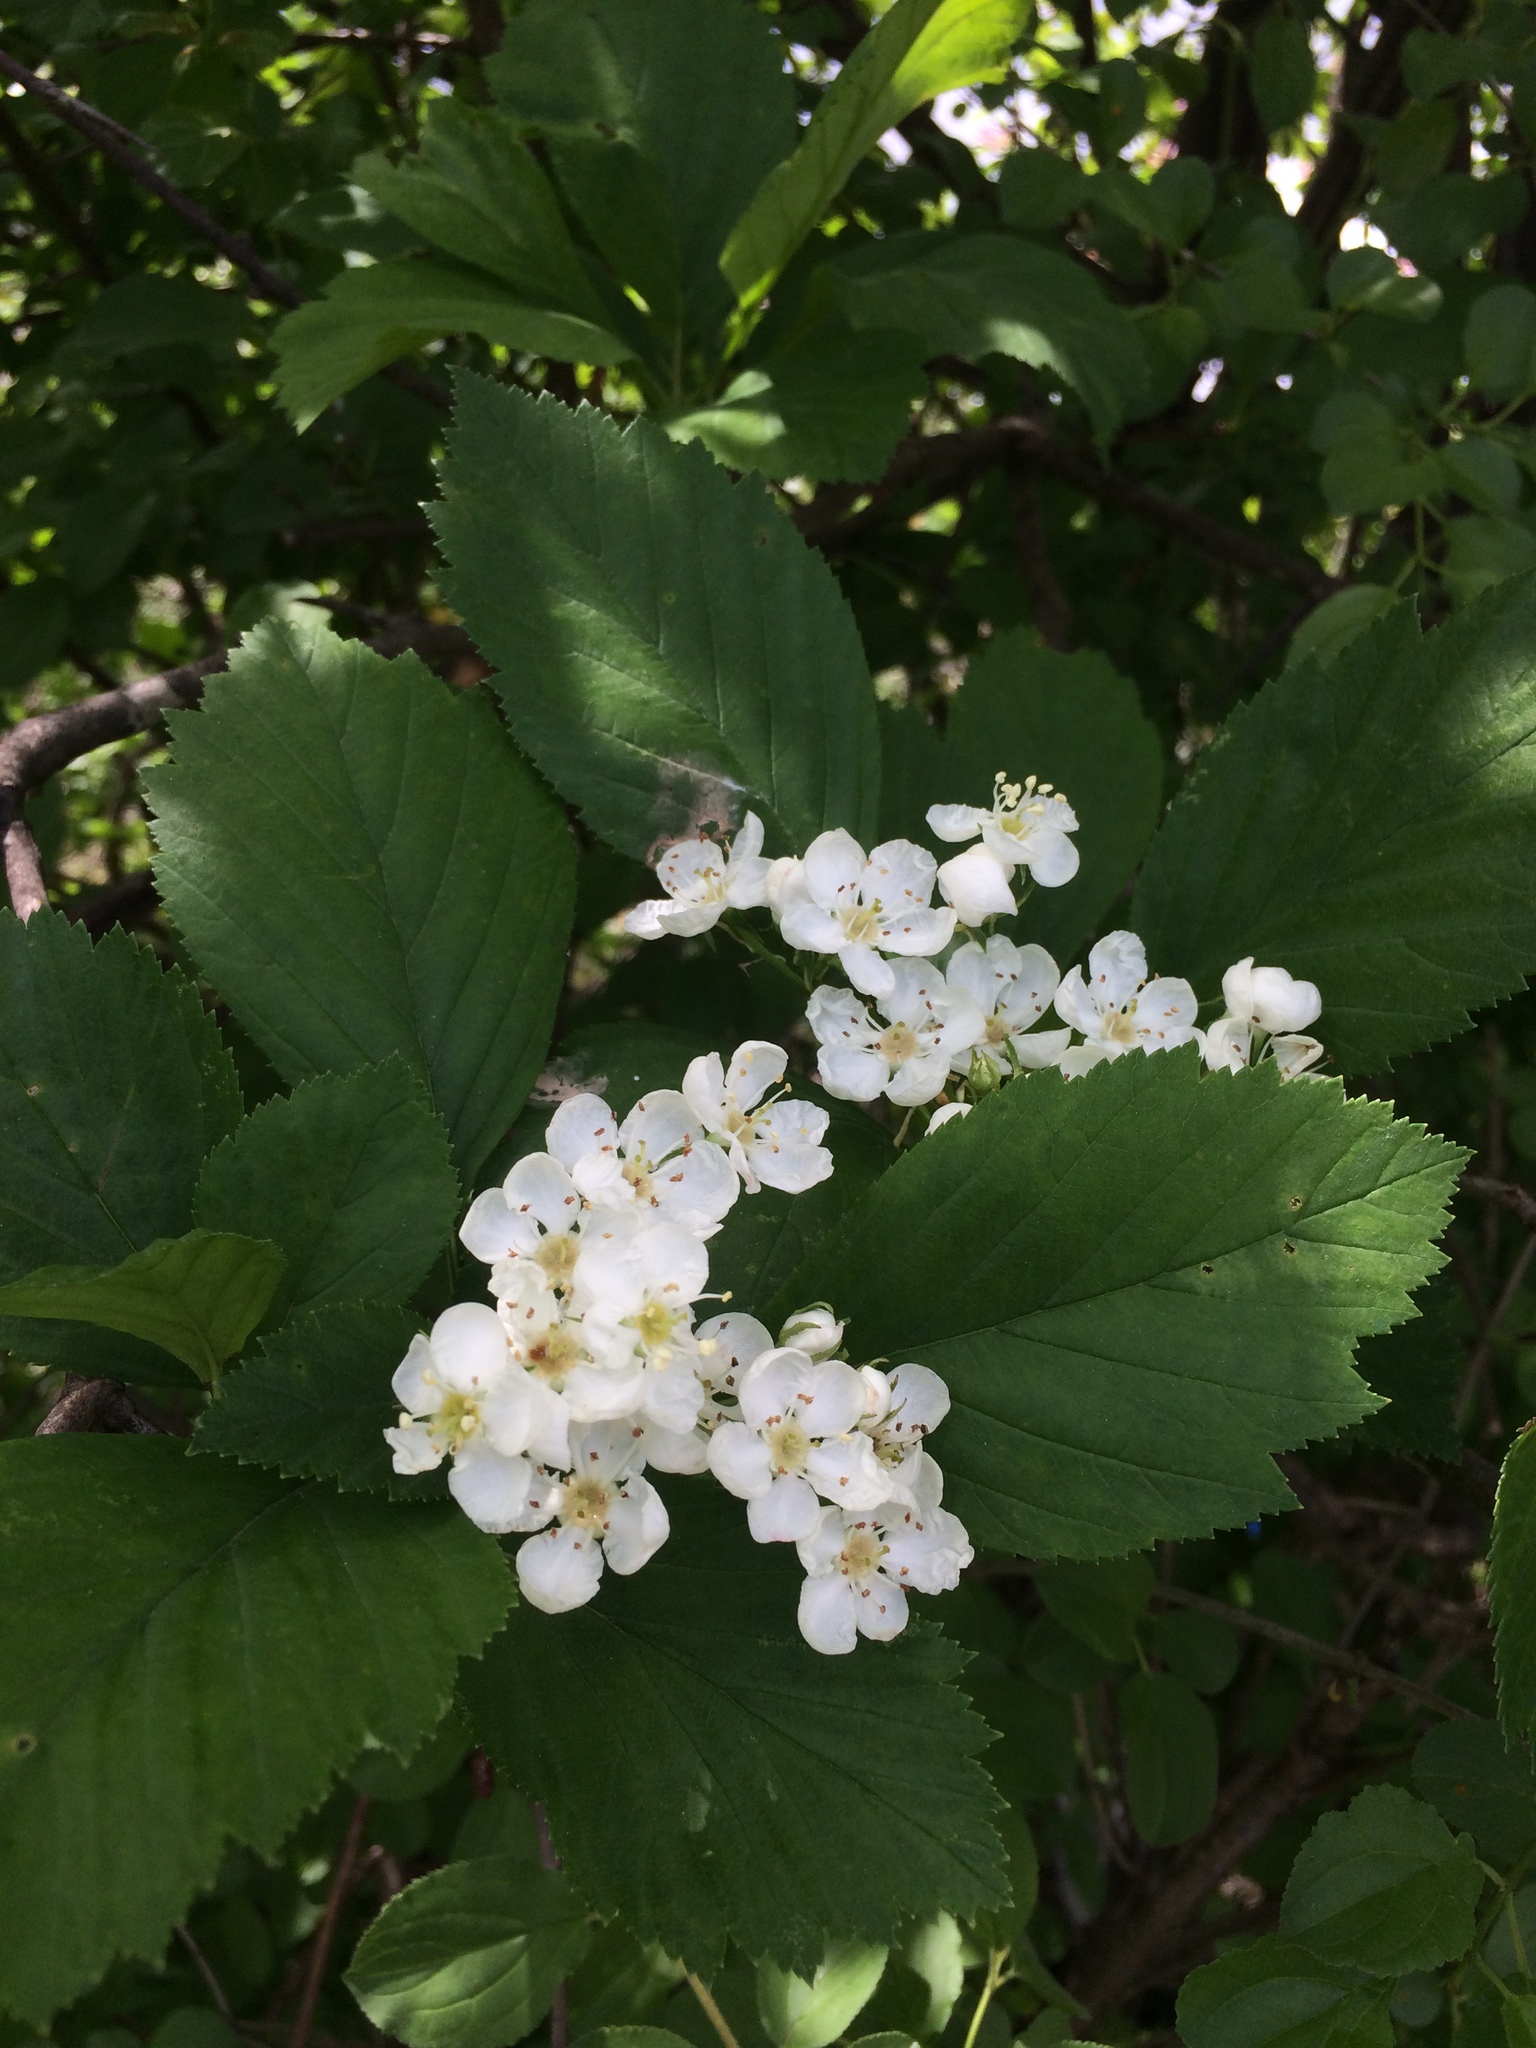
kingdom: Plantae
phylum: Tracheophyta
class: Magnoliopsida
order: Rosales
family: Rosaceae
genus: Crataegus
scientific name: Crataegus macracantha
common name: Large-thorn hawthorn
